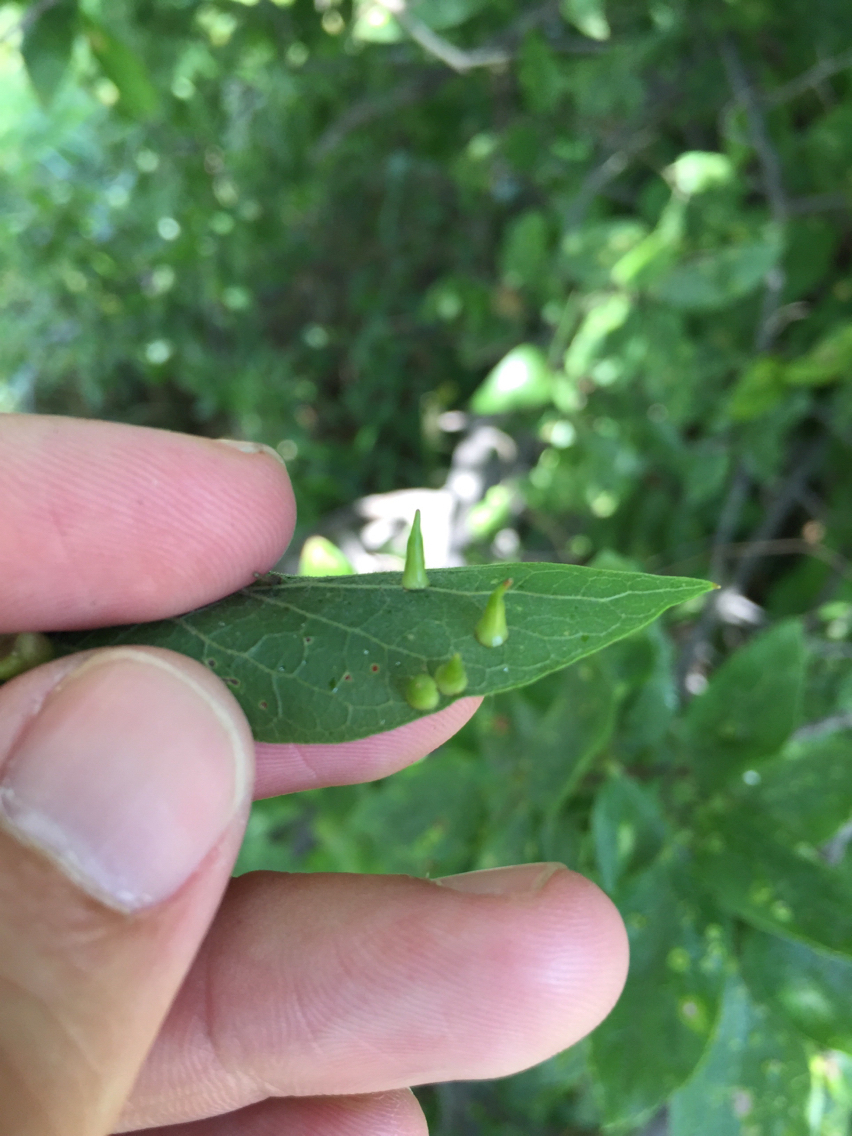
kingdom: Animalia
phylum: Arthropoda
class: Insecta
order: Diptera
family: Cecidomyiidae
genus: Celticecis
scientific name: Celticecis subulata
